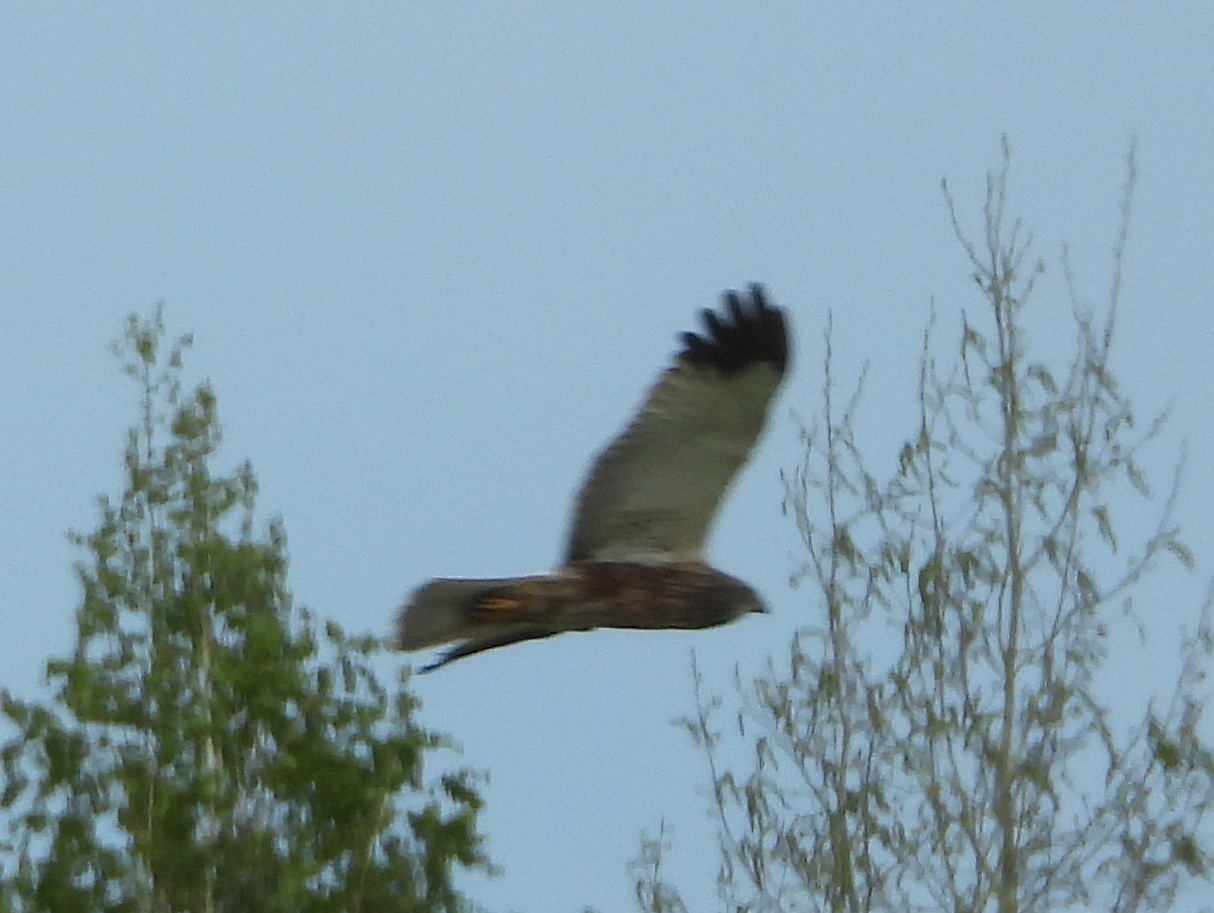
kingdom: Animalia
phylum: Chordata
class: Aves
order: Accipitriformes
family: Accipitridae
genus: Circus
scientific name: Circus aeruginosus
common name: Western marsh harrier
